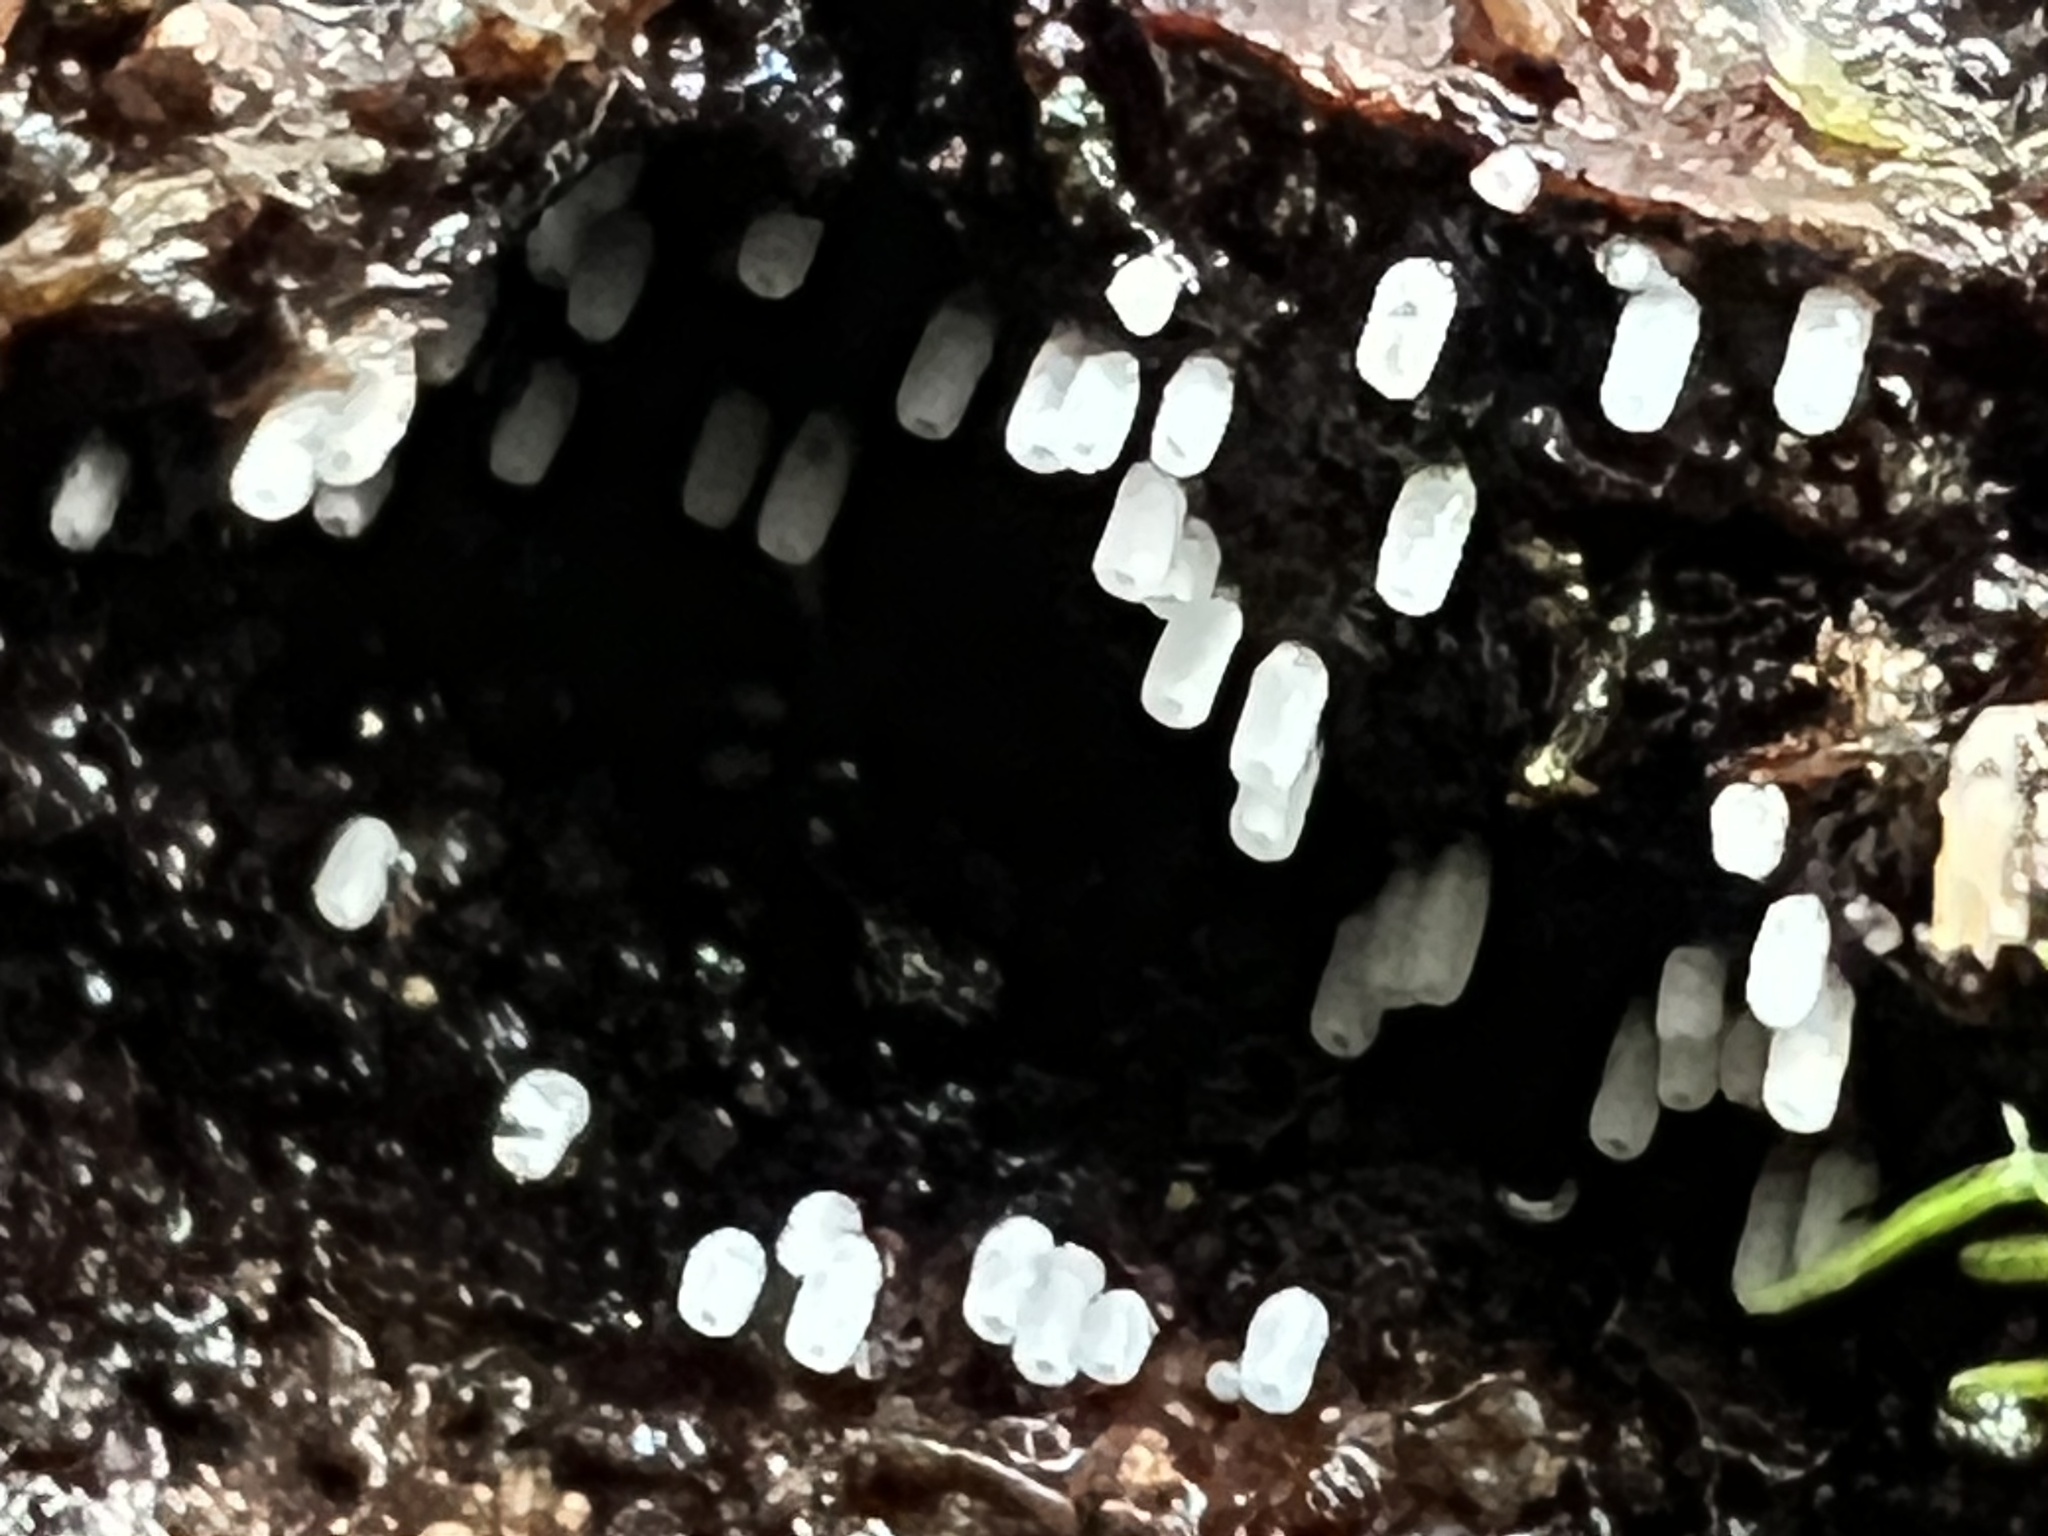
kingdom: Fungi
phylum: Basidiomycota
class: Agaricomycetes
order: Agaricales
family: Marasmiaceae
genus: Henningsomyces
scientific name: Henningsomyces candidus
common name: White tubelet
